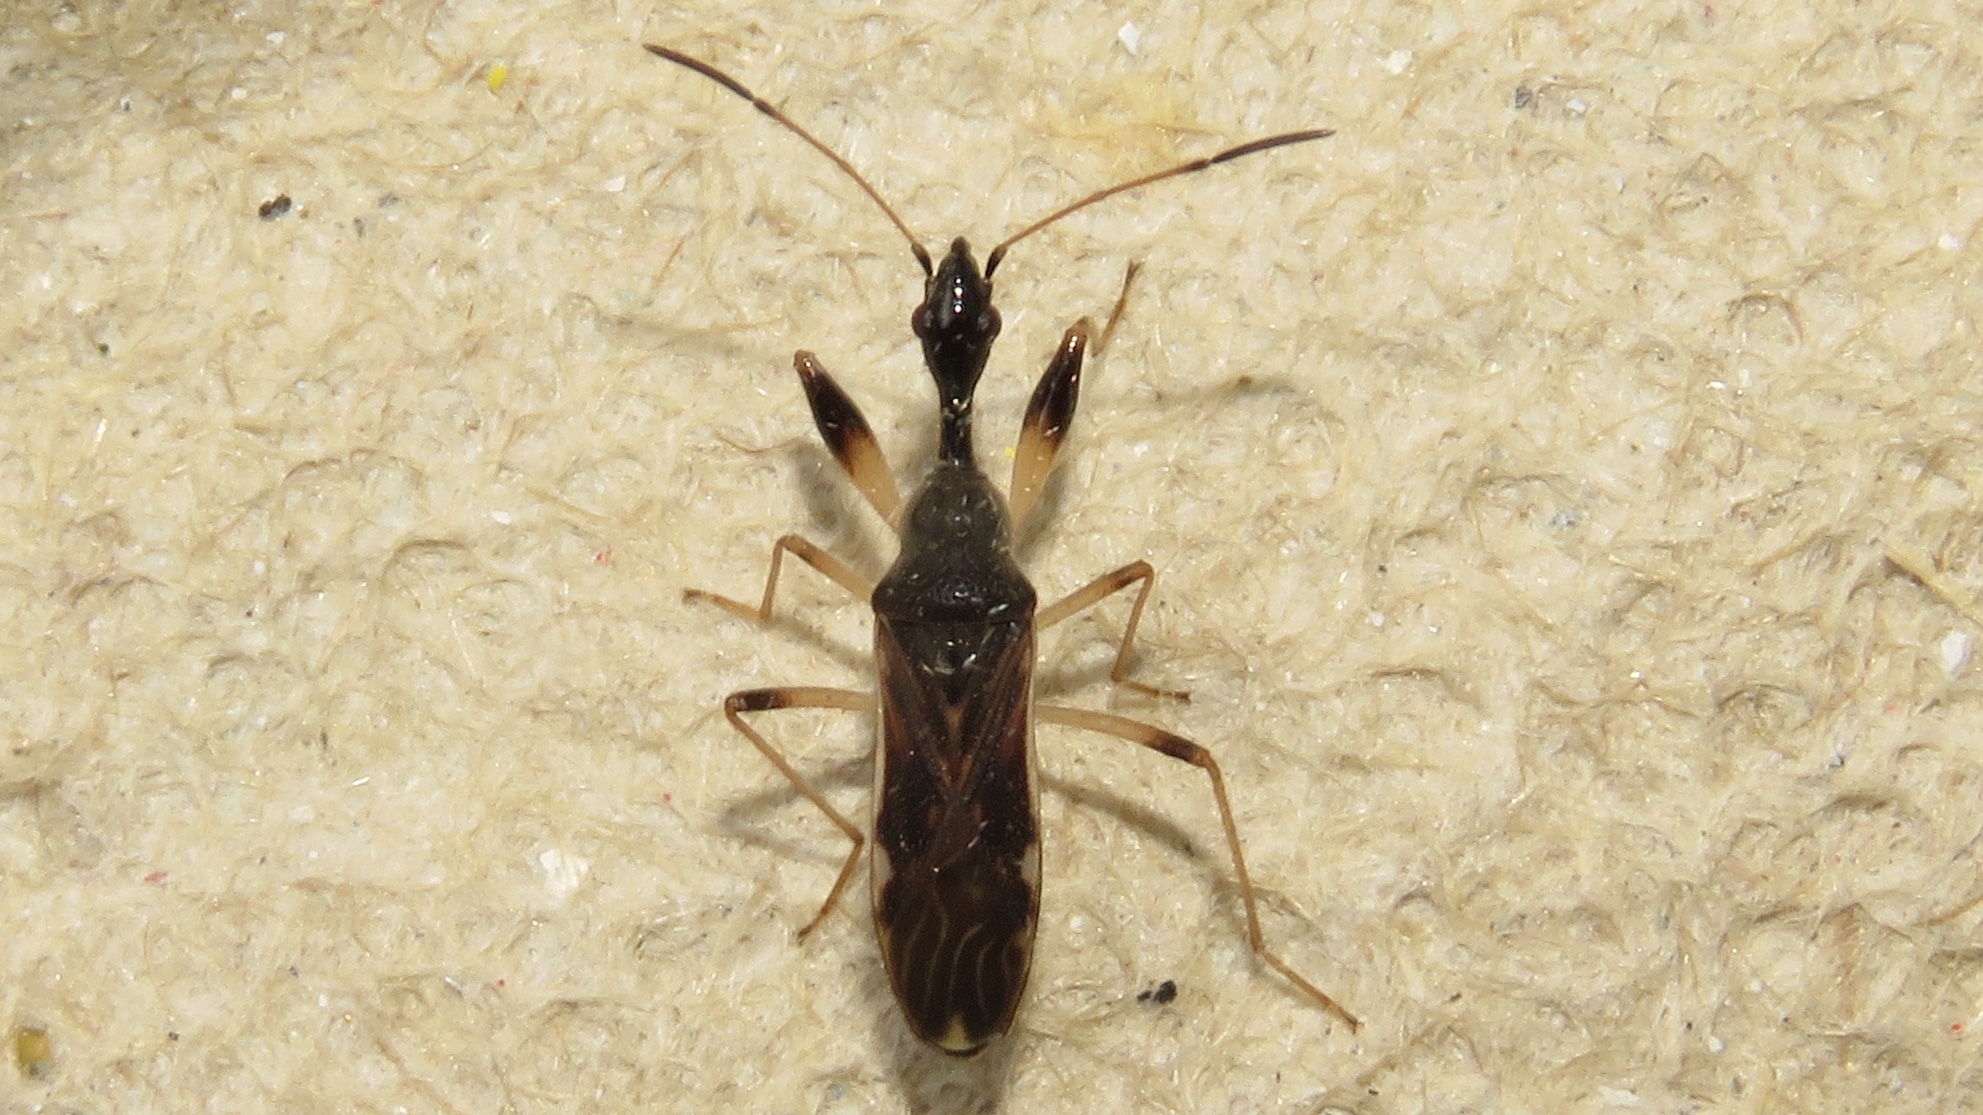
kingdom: Animalia
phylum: Arthropoda
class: Insecta
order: Hemiptera
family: Rhyparochromidae
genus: Myodocha
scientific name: Myodocha serripes
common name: Long-necked seed bug
